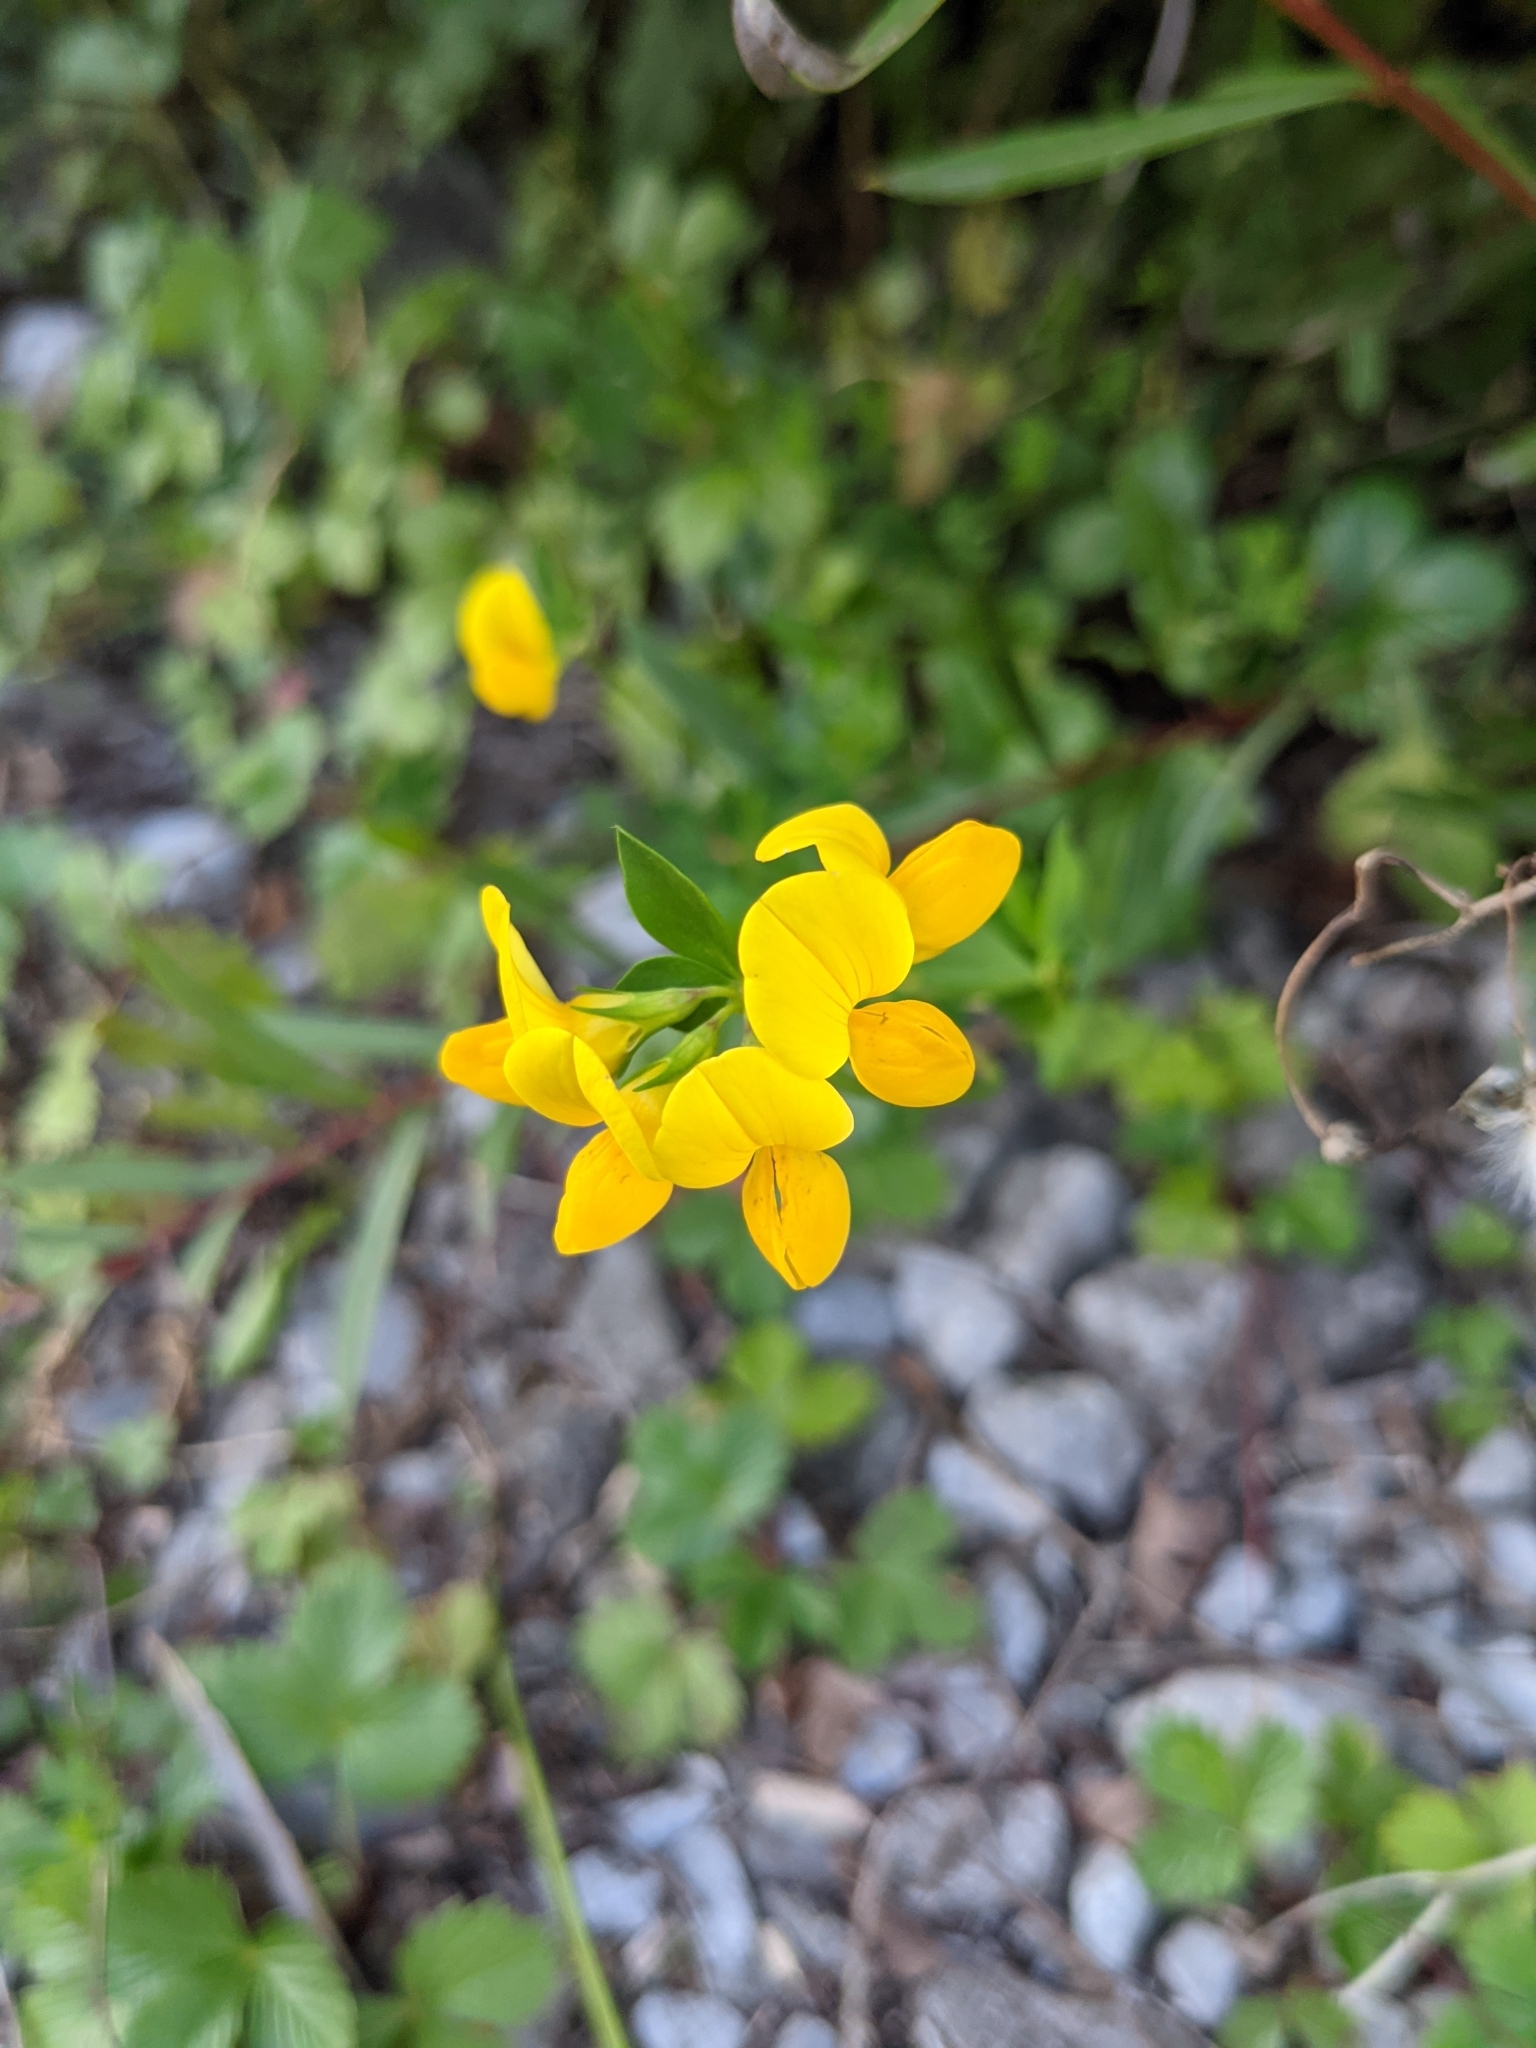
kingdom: Plantae
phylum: Tracheophyta
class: Magnoliopsida
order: Fabales
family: Fabaceae
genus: Lotus
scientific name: Lotus corniculatus
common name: Common bird's-foot-trefoil
